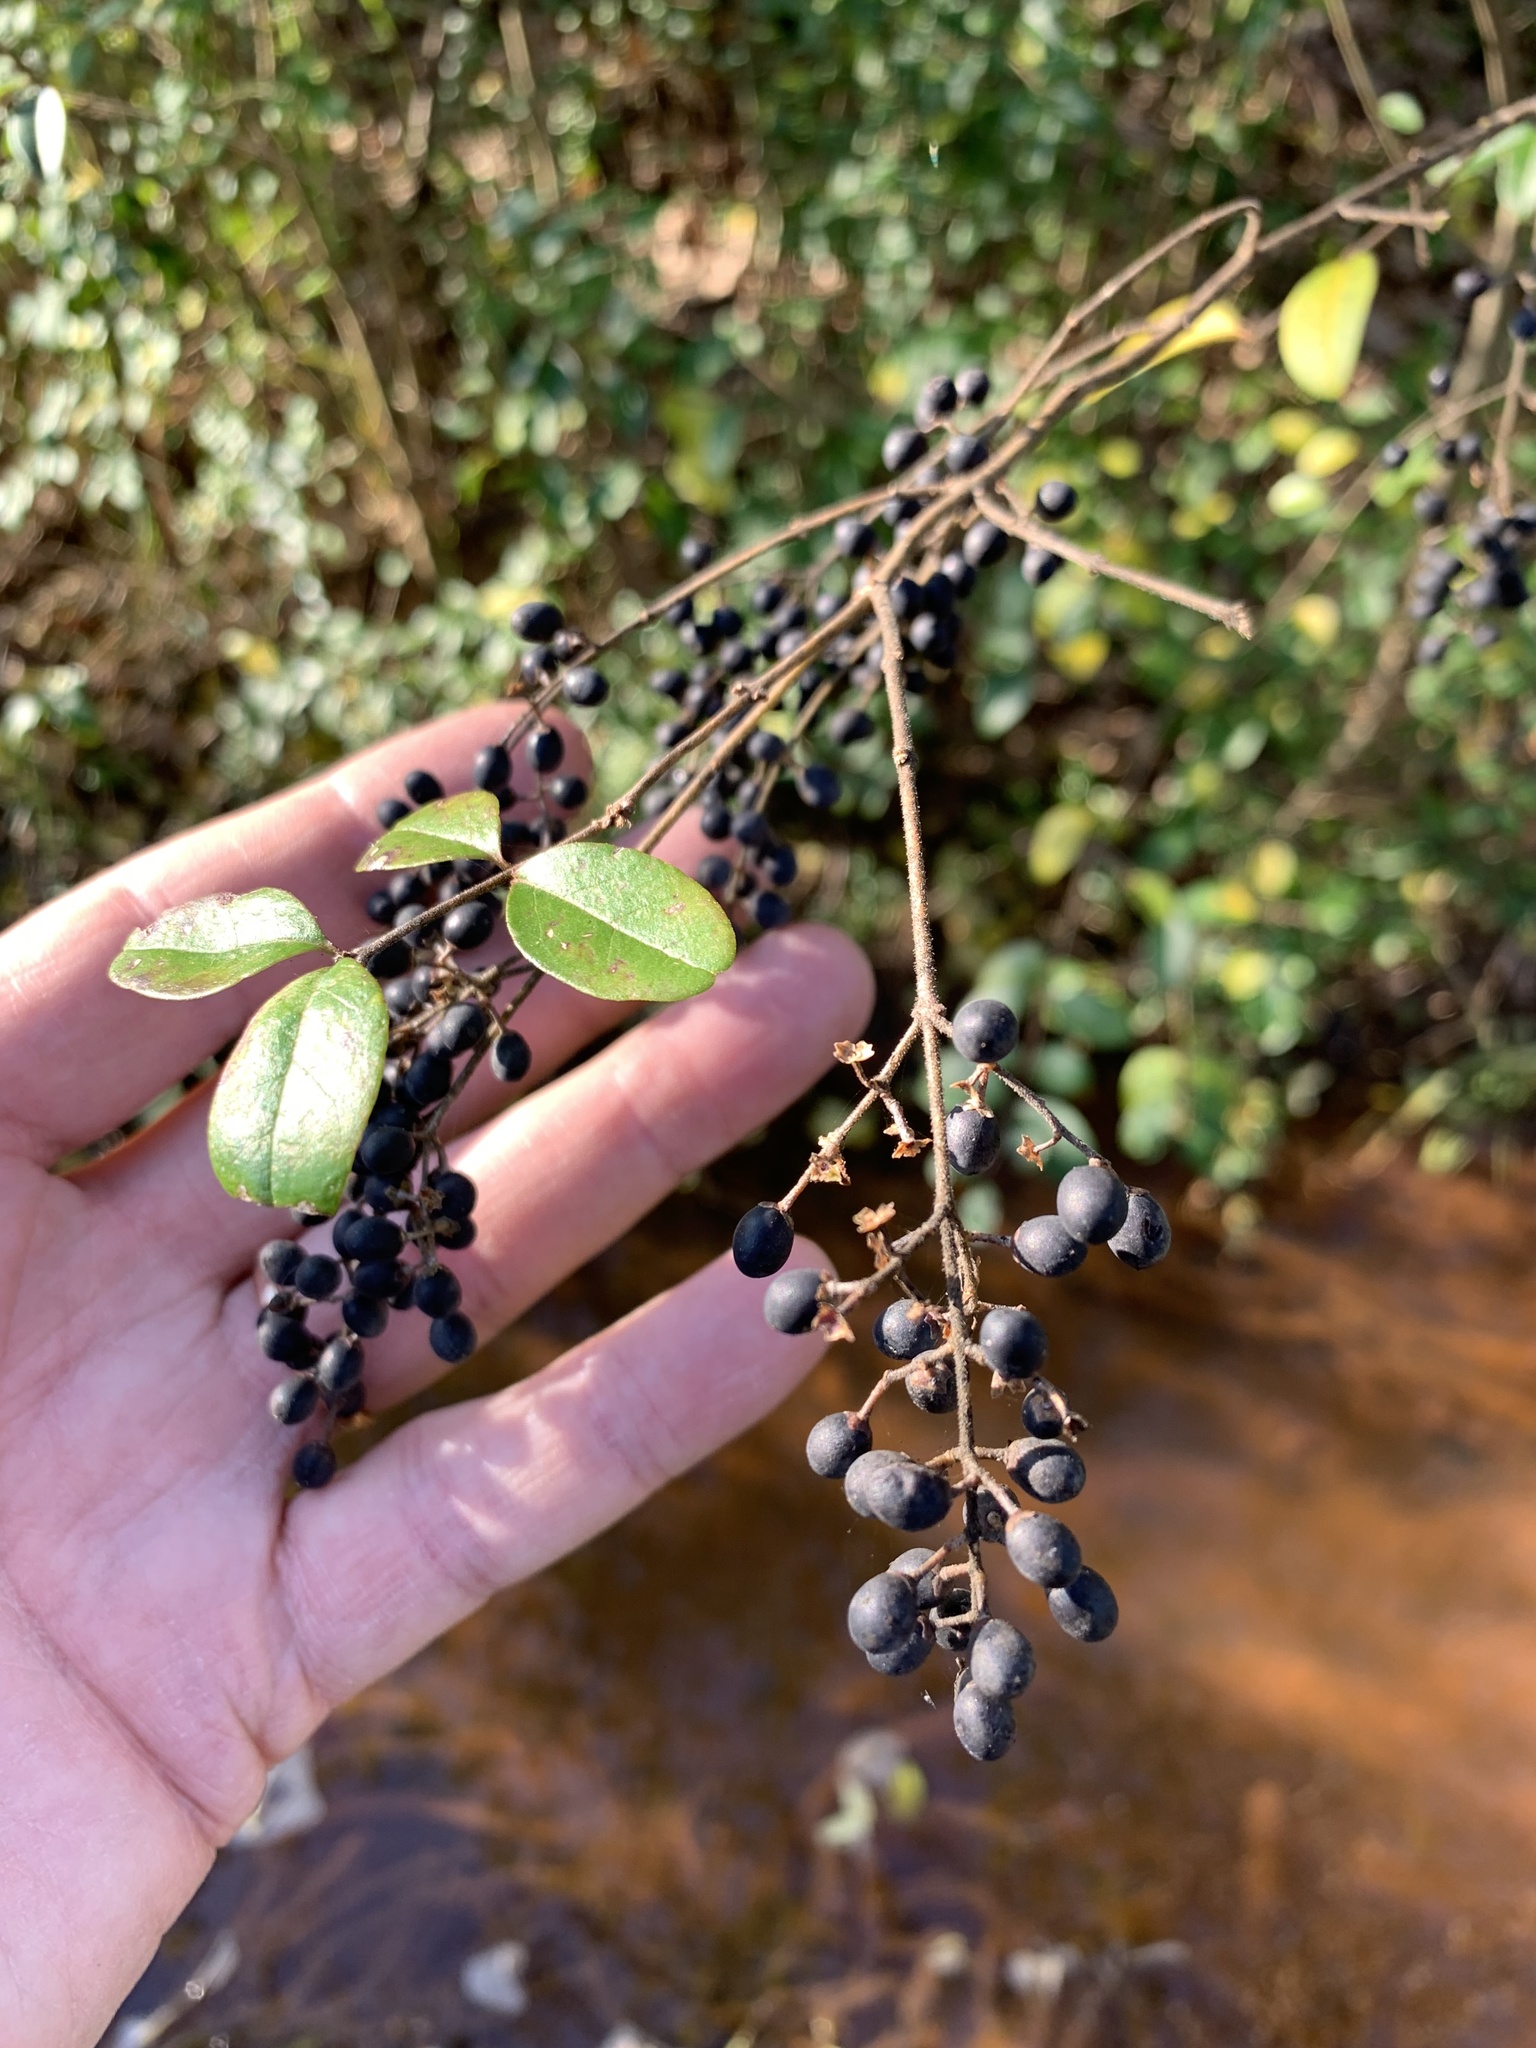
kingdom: Plantae
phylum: Tracheophyta
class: Magnoliopsida
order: Lamiales
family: Oleaceae
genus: Ligustrum
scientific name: Ligustrum sinense
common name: Chinese privet
